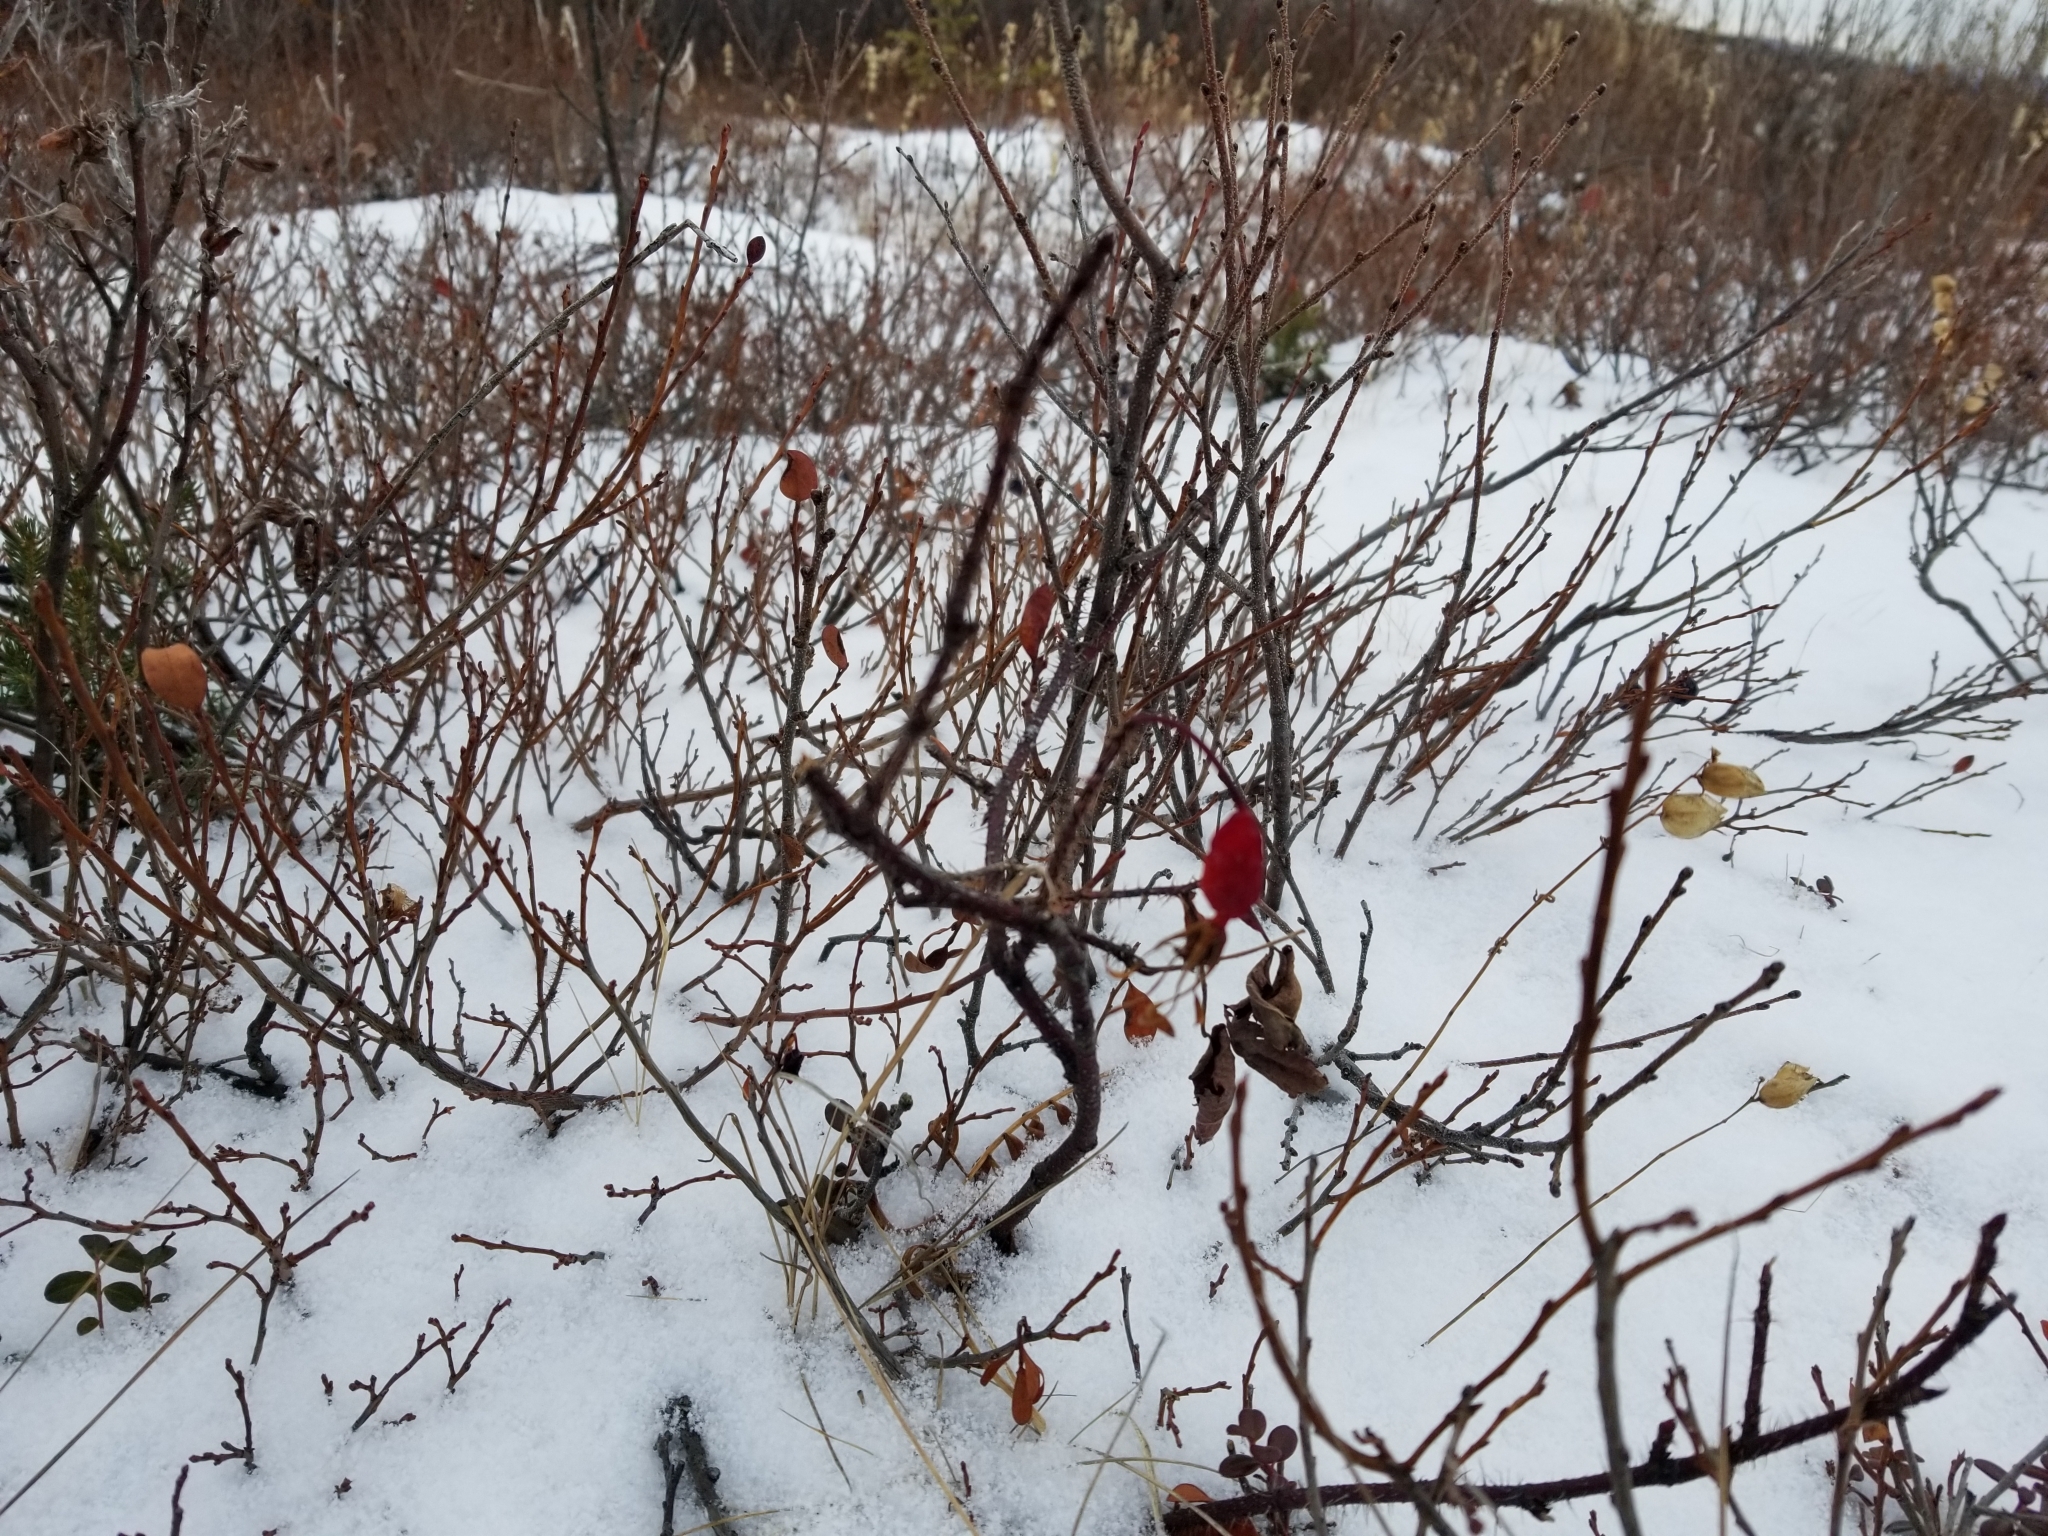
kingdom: Plantae
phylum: Tracheophyta
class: Magnoliopsida
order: Rosales
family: Rosaceae
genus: Rosa
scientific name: Rosa acicularis
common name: Prickly rose
